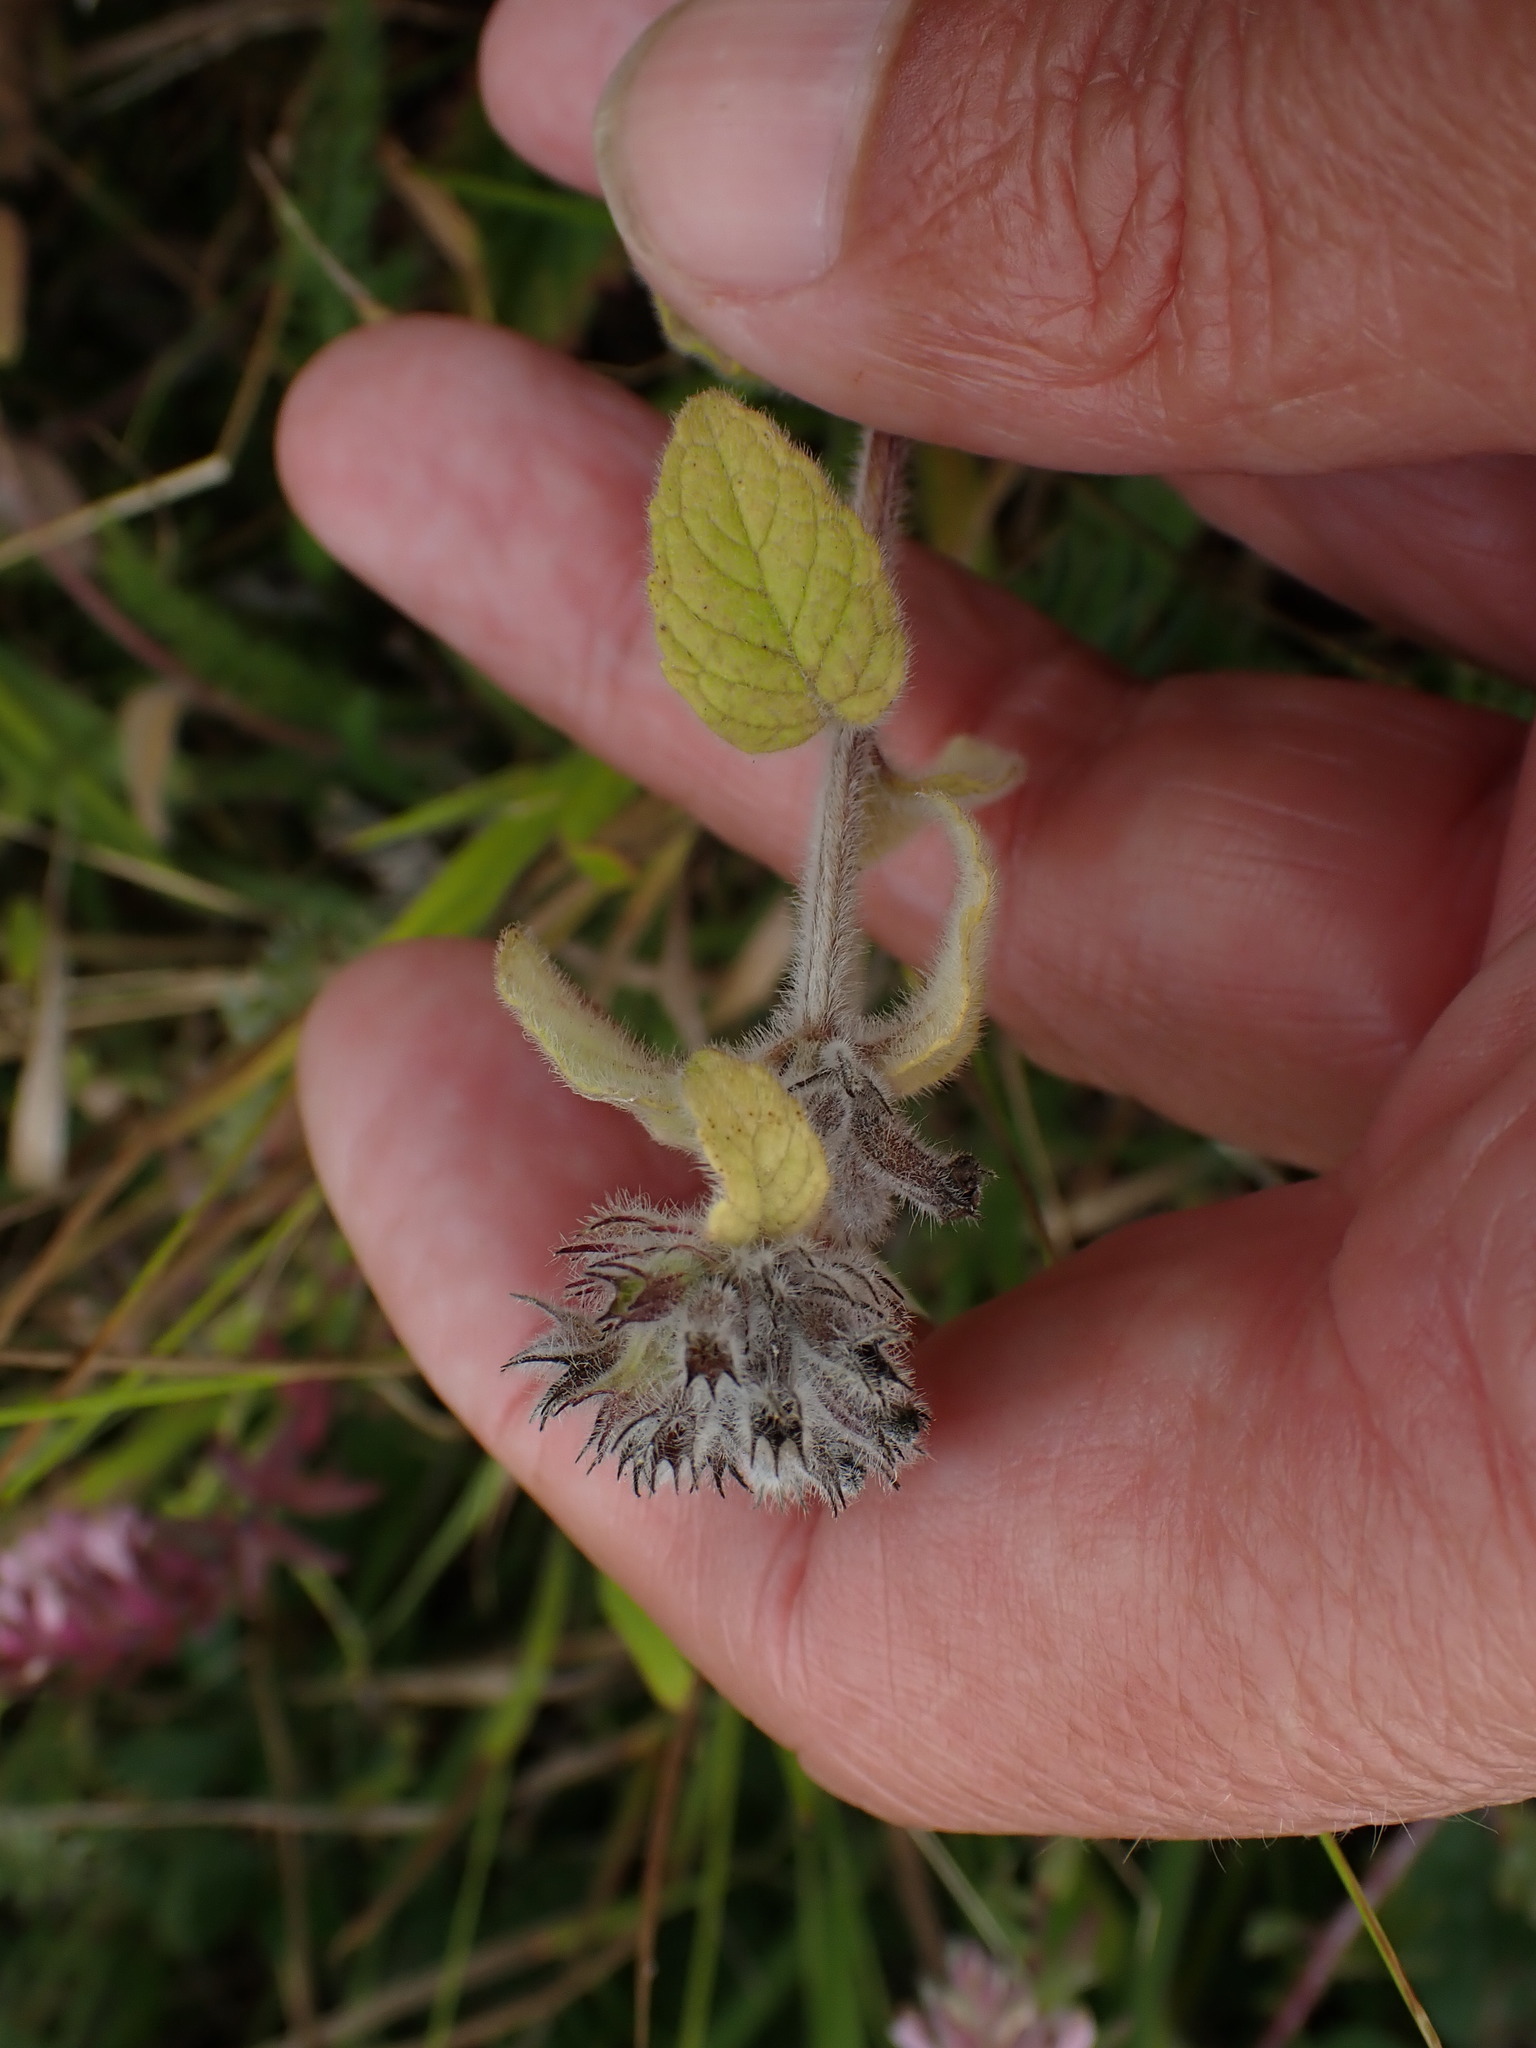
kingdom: Plantae
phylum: Tracheophyta
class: Magnoliopsida
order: Lamiales
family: Lamiaceae
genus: Clinopodium
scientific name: Clinopodium vulgare
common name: Wild basil
